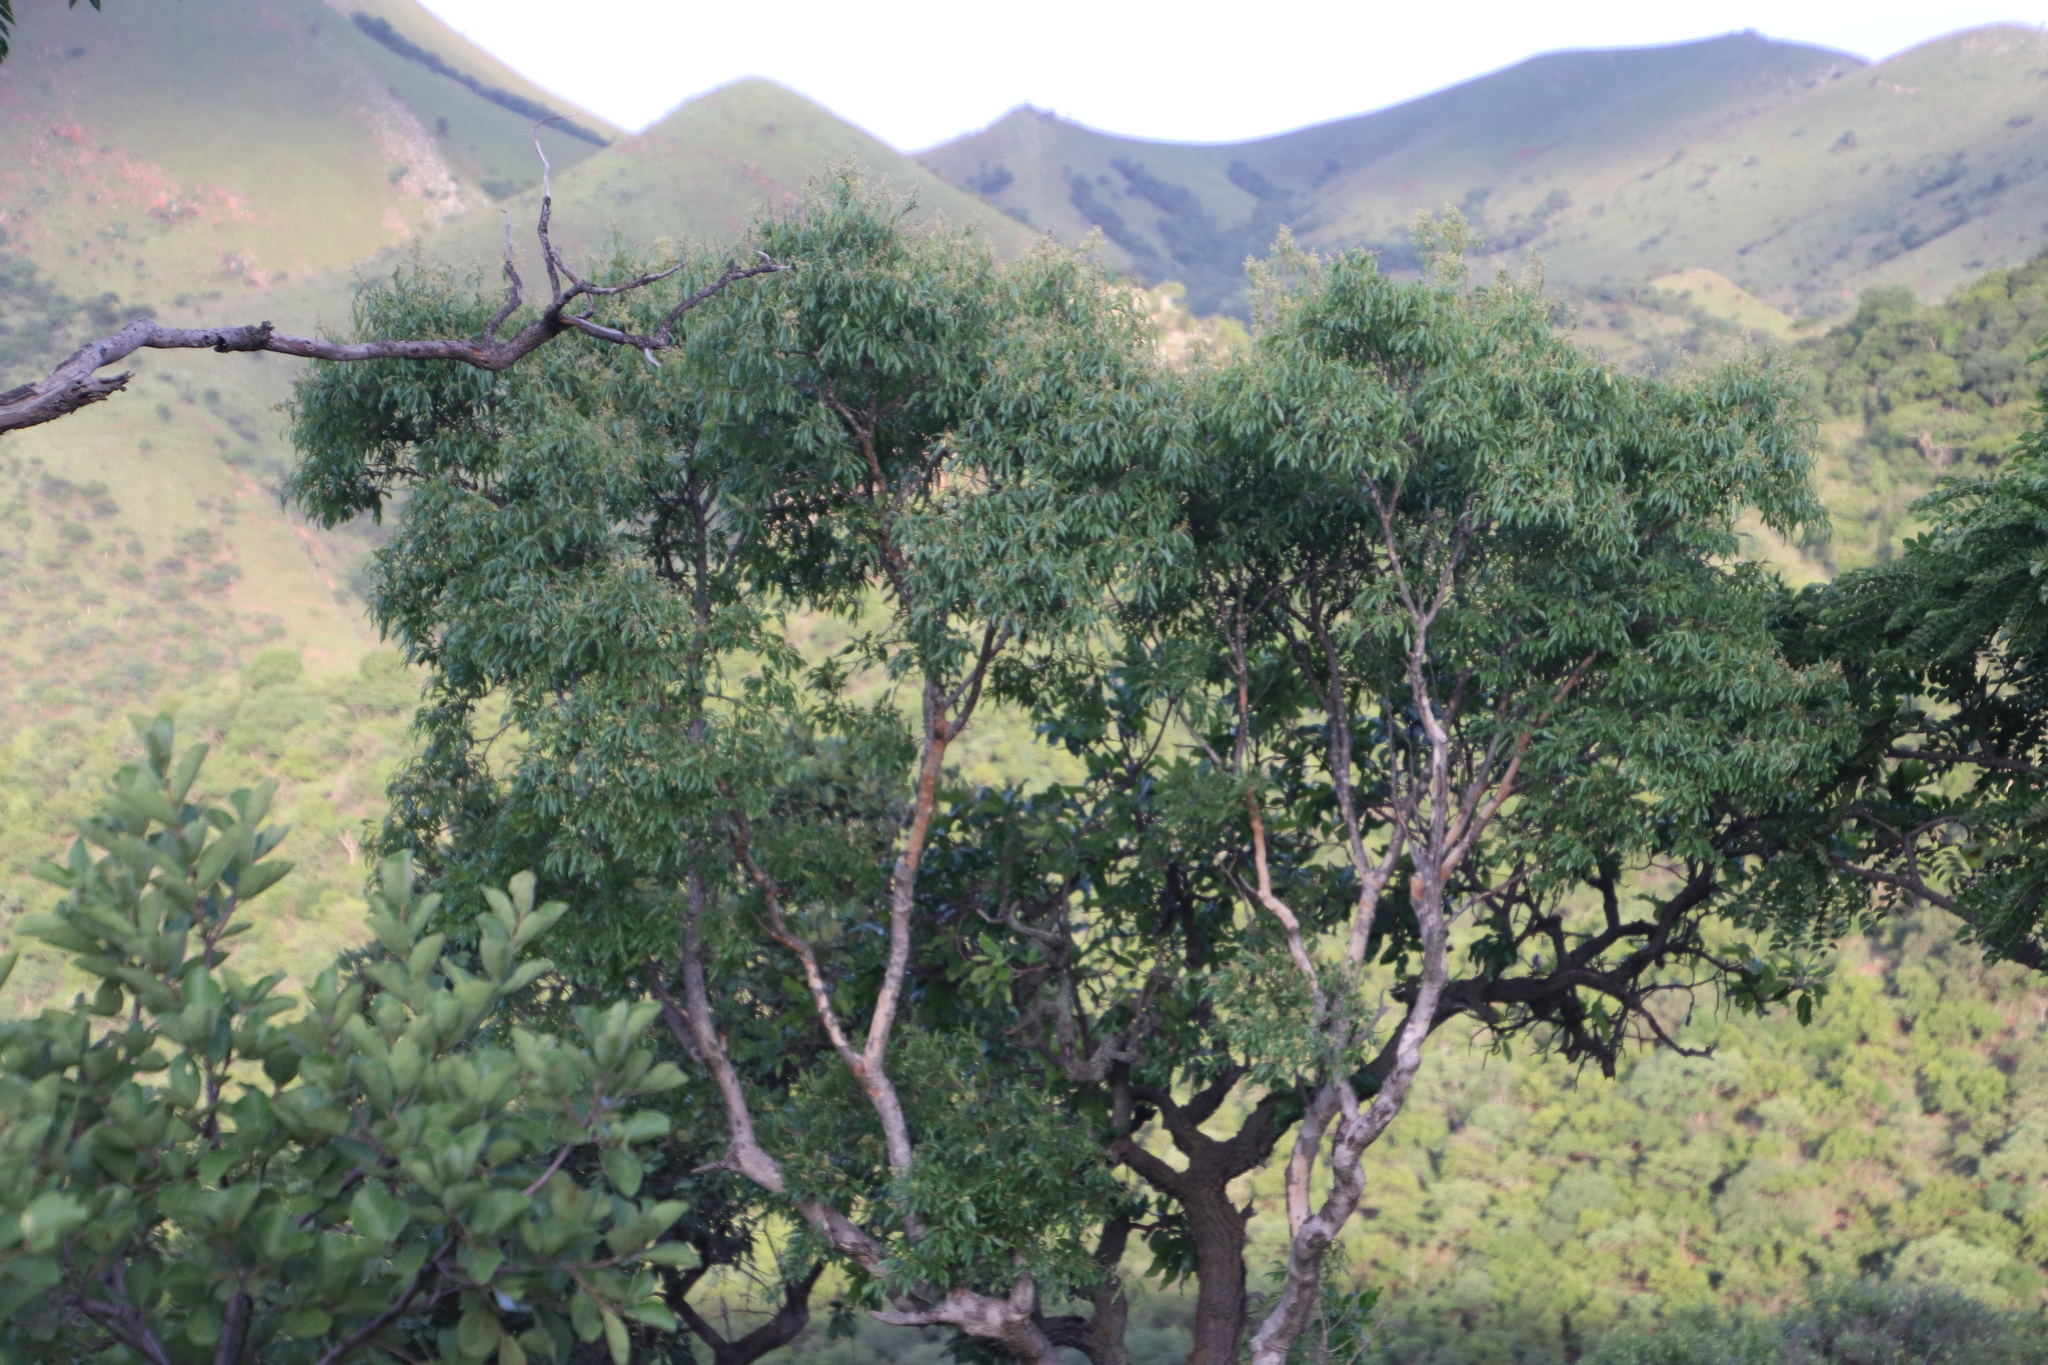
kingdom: Plantae
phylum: Tracheophyta
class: Magnoliopsida
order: Myrtales
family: Myrtaceae
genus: Heteropyxis
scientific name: Heteropyxis natalensis
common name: Lavender tree
